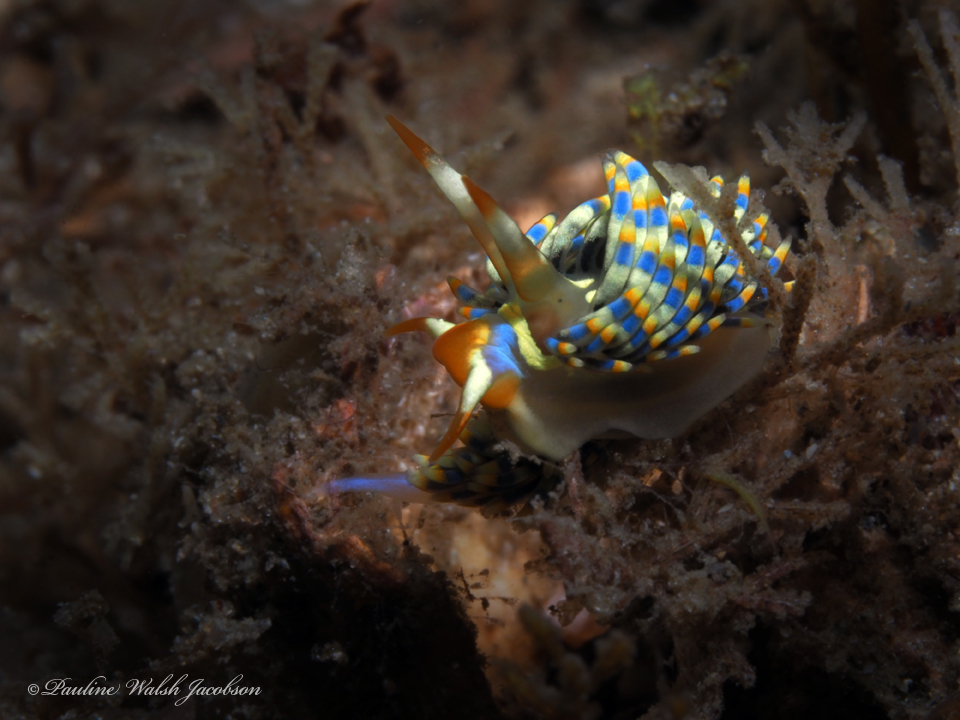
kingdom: Animalia
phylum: Mollusca
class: Gastropoda
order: Nudibranchia
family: Cuthonidae
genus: Cuthona
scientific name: Cuthona herrerai
